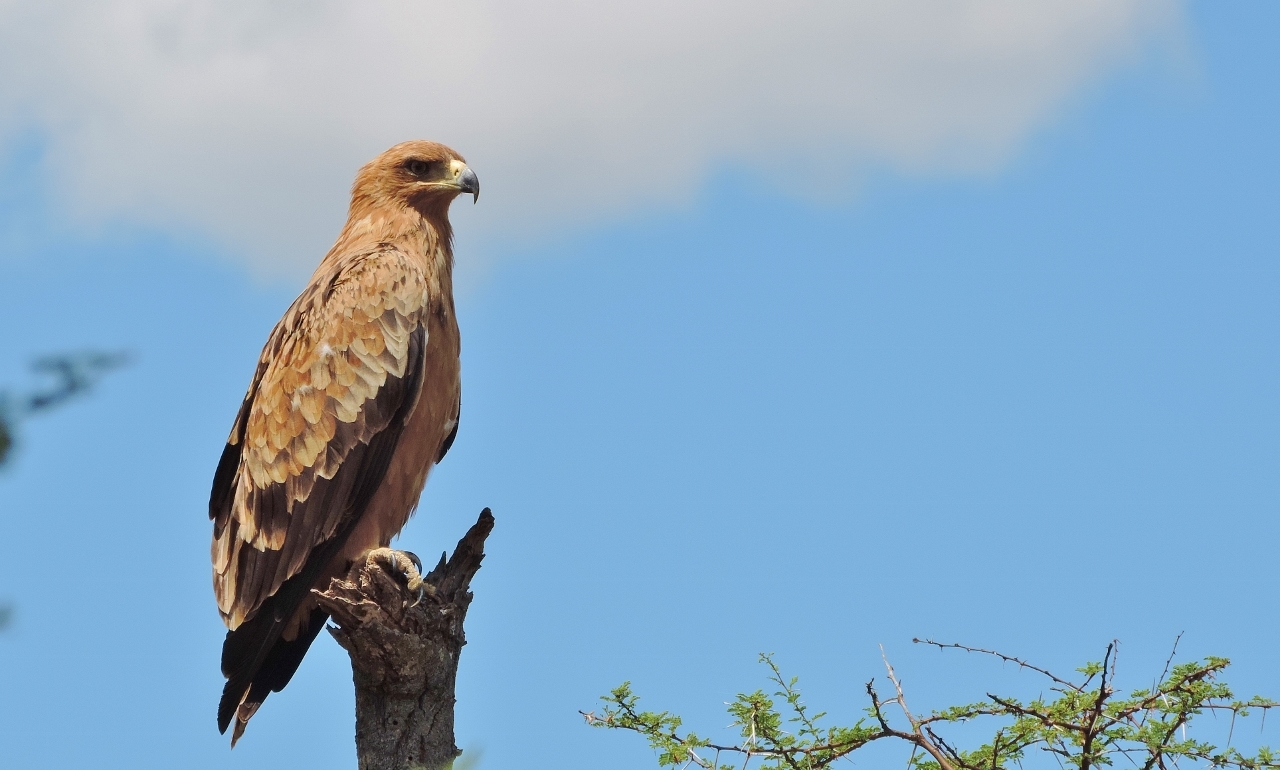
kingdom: Animalia
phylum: Chordata
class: Aves
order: Accipitriformes
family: Accipitridae
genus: Aquila
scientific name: Aquila rapax
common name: Tawny eagle
